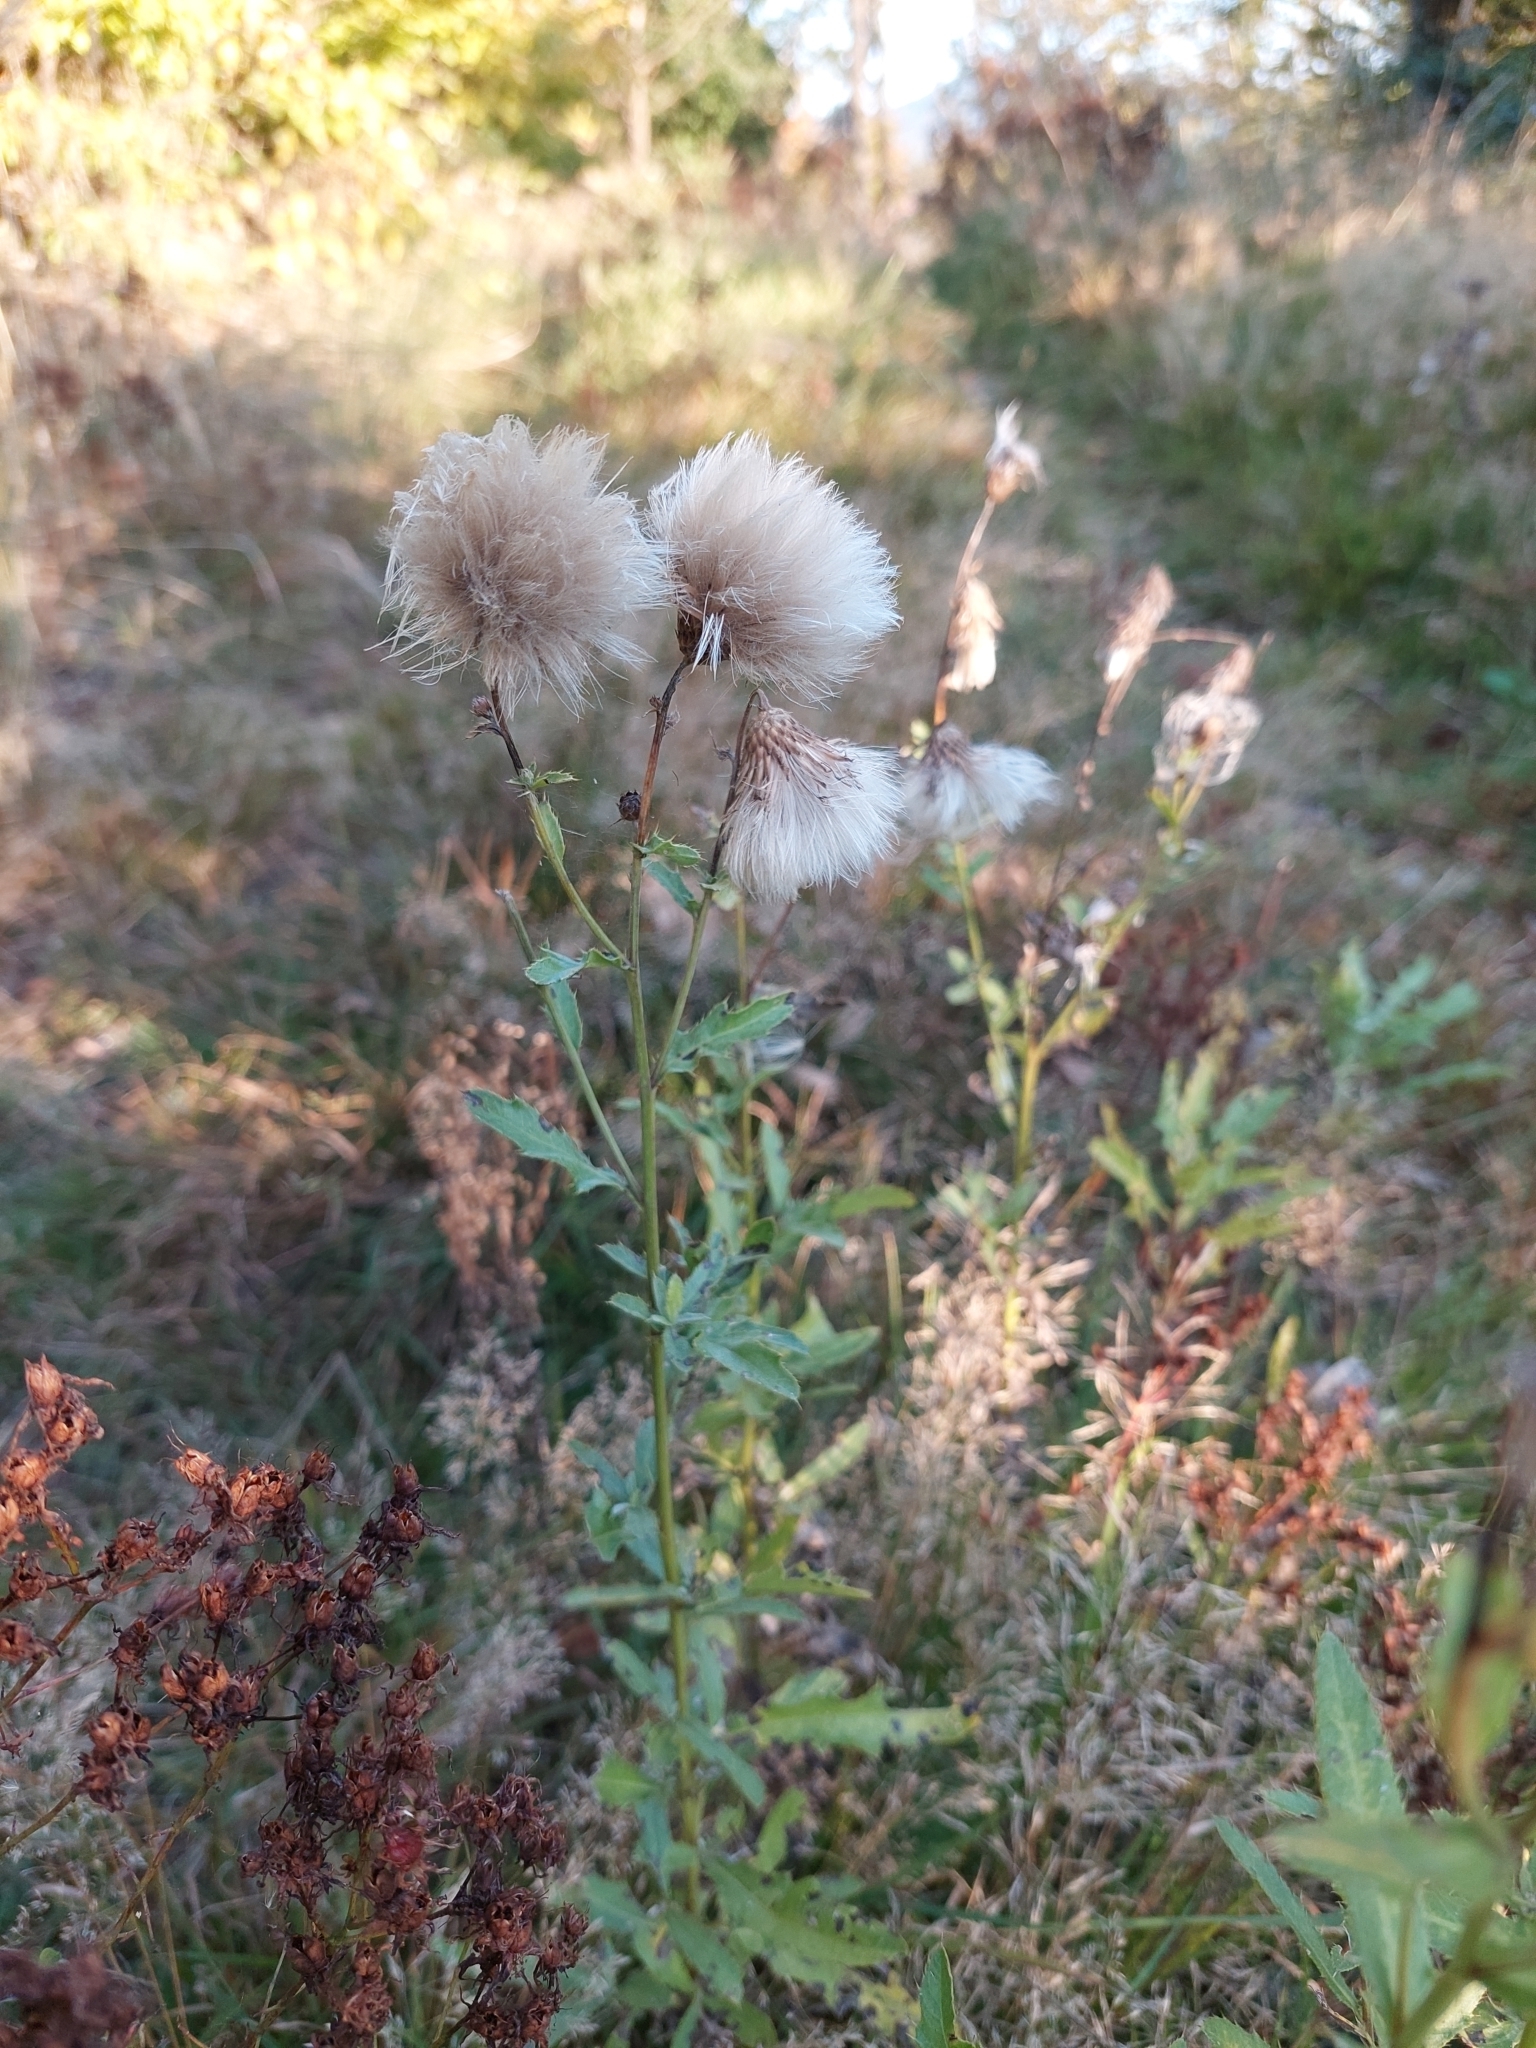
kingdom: Plantae
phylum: Tracheophyta
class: Magnoliopsida
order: Asterales
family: Asteraceae
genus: Cirsium
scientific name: Cirsium arvense
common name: Creeping thistle
